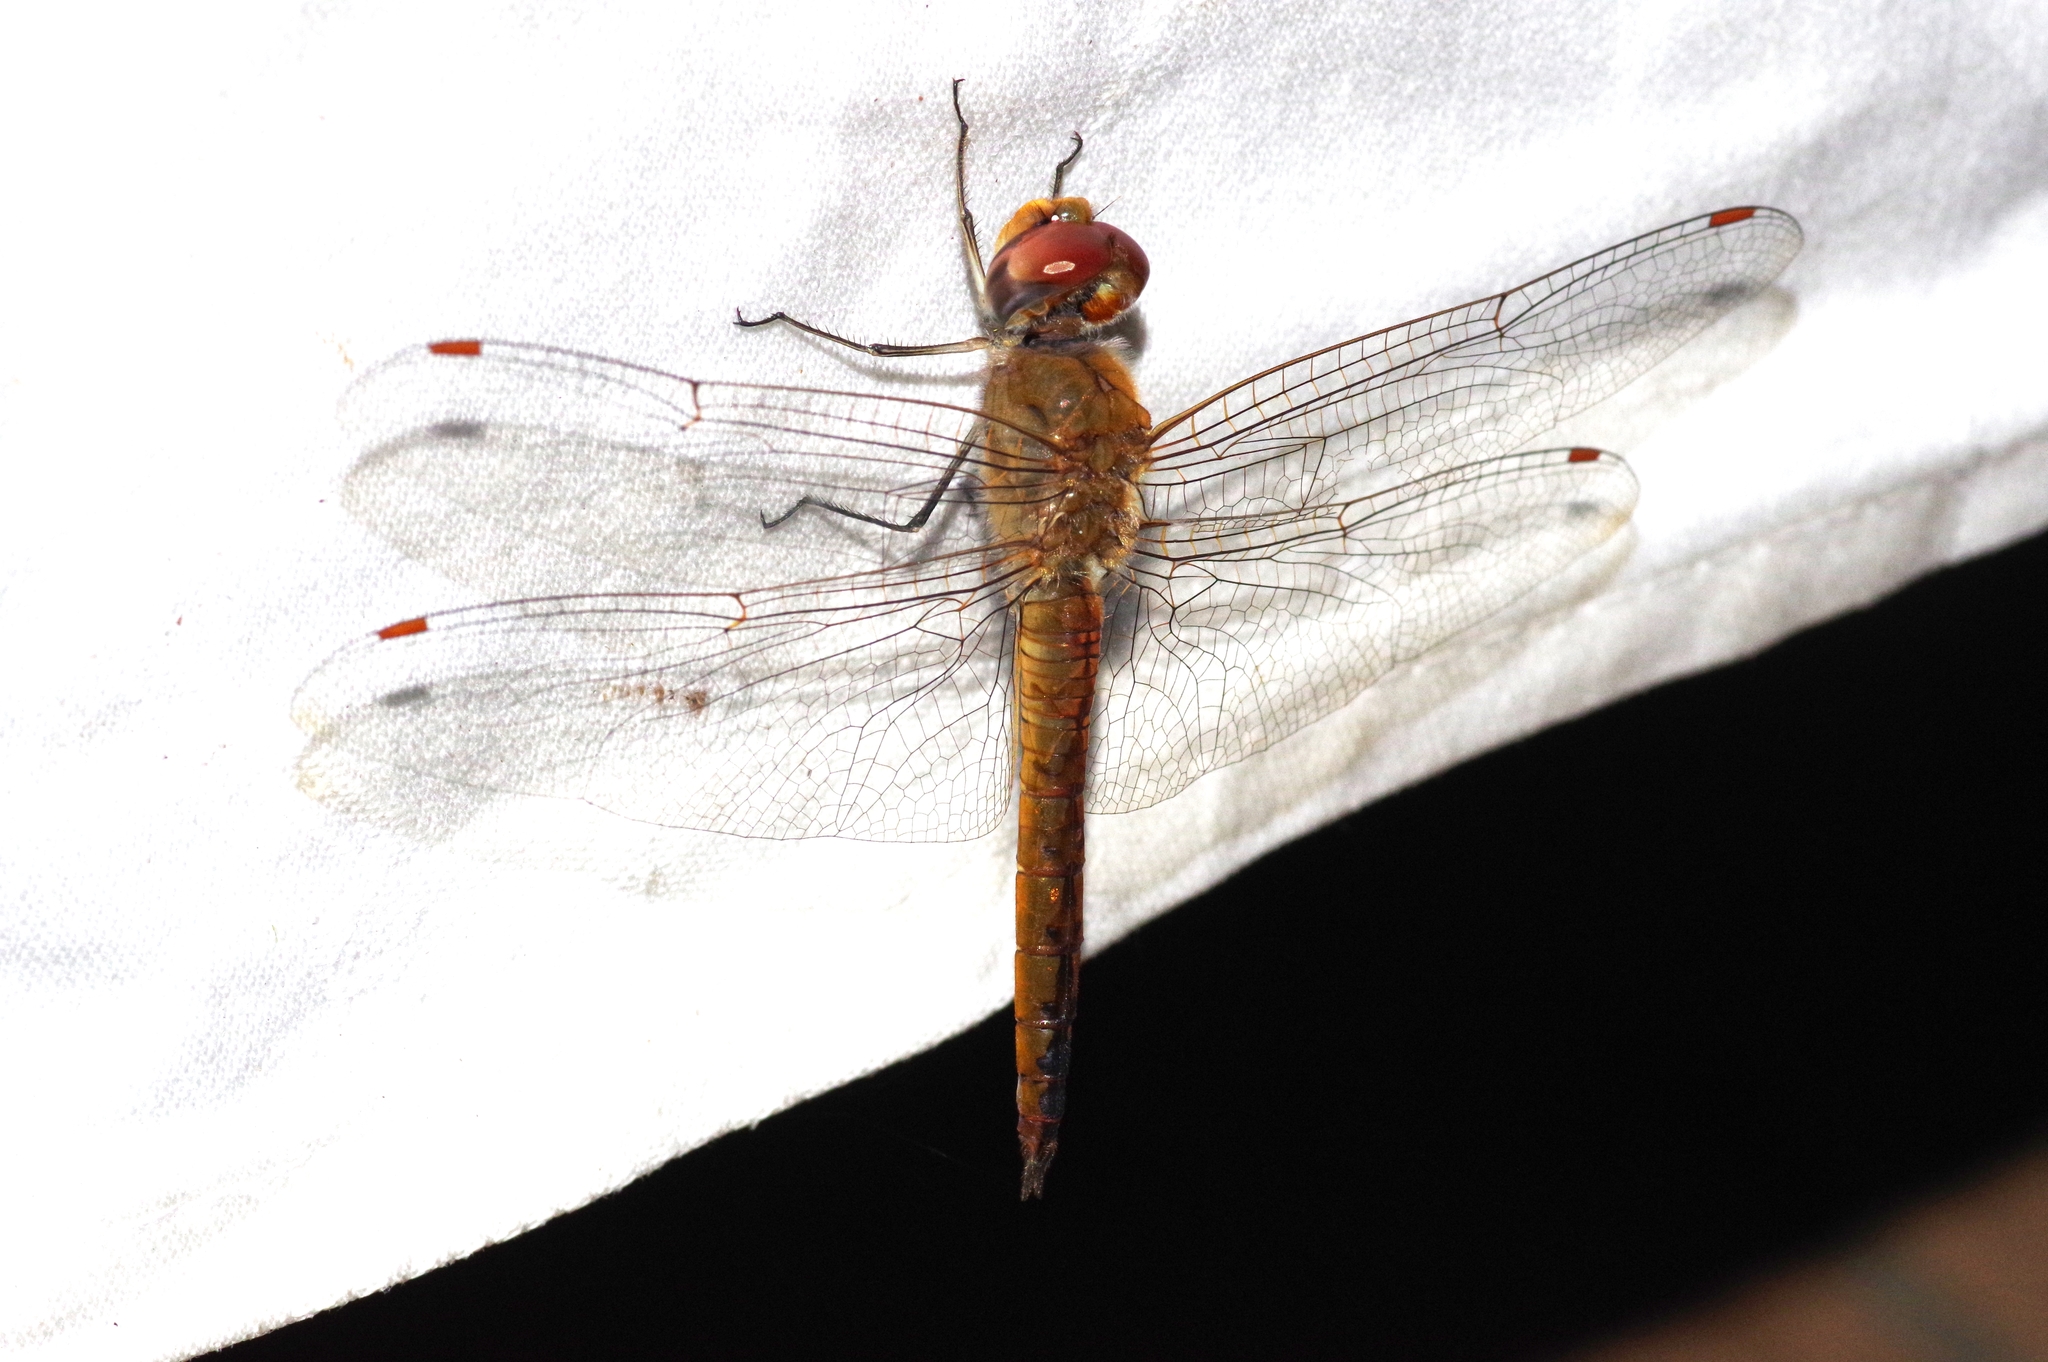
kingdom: Animalia
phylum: Arthropoda
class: Insecta
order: Odonata
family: Libellulidae
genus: Pantala
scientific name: Pantala flavescens
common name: Wandering glider
